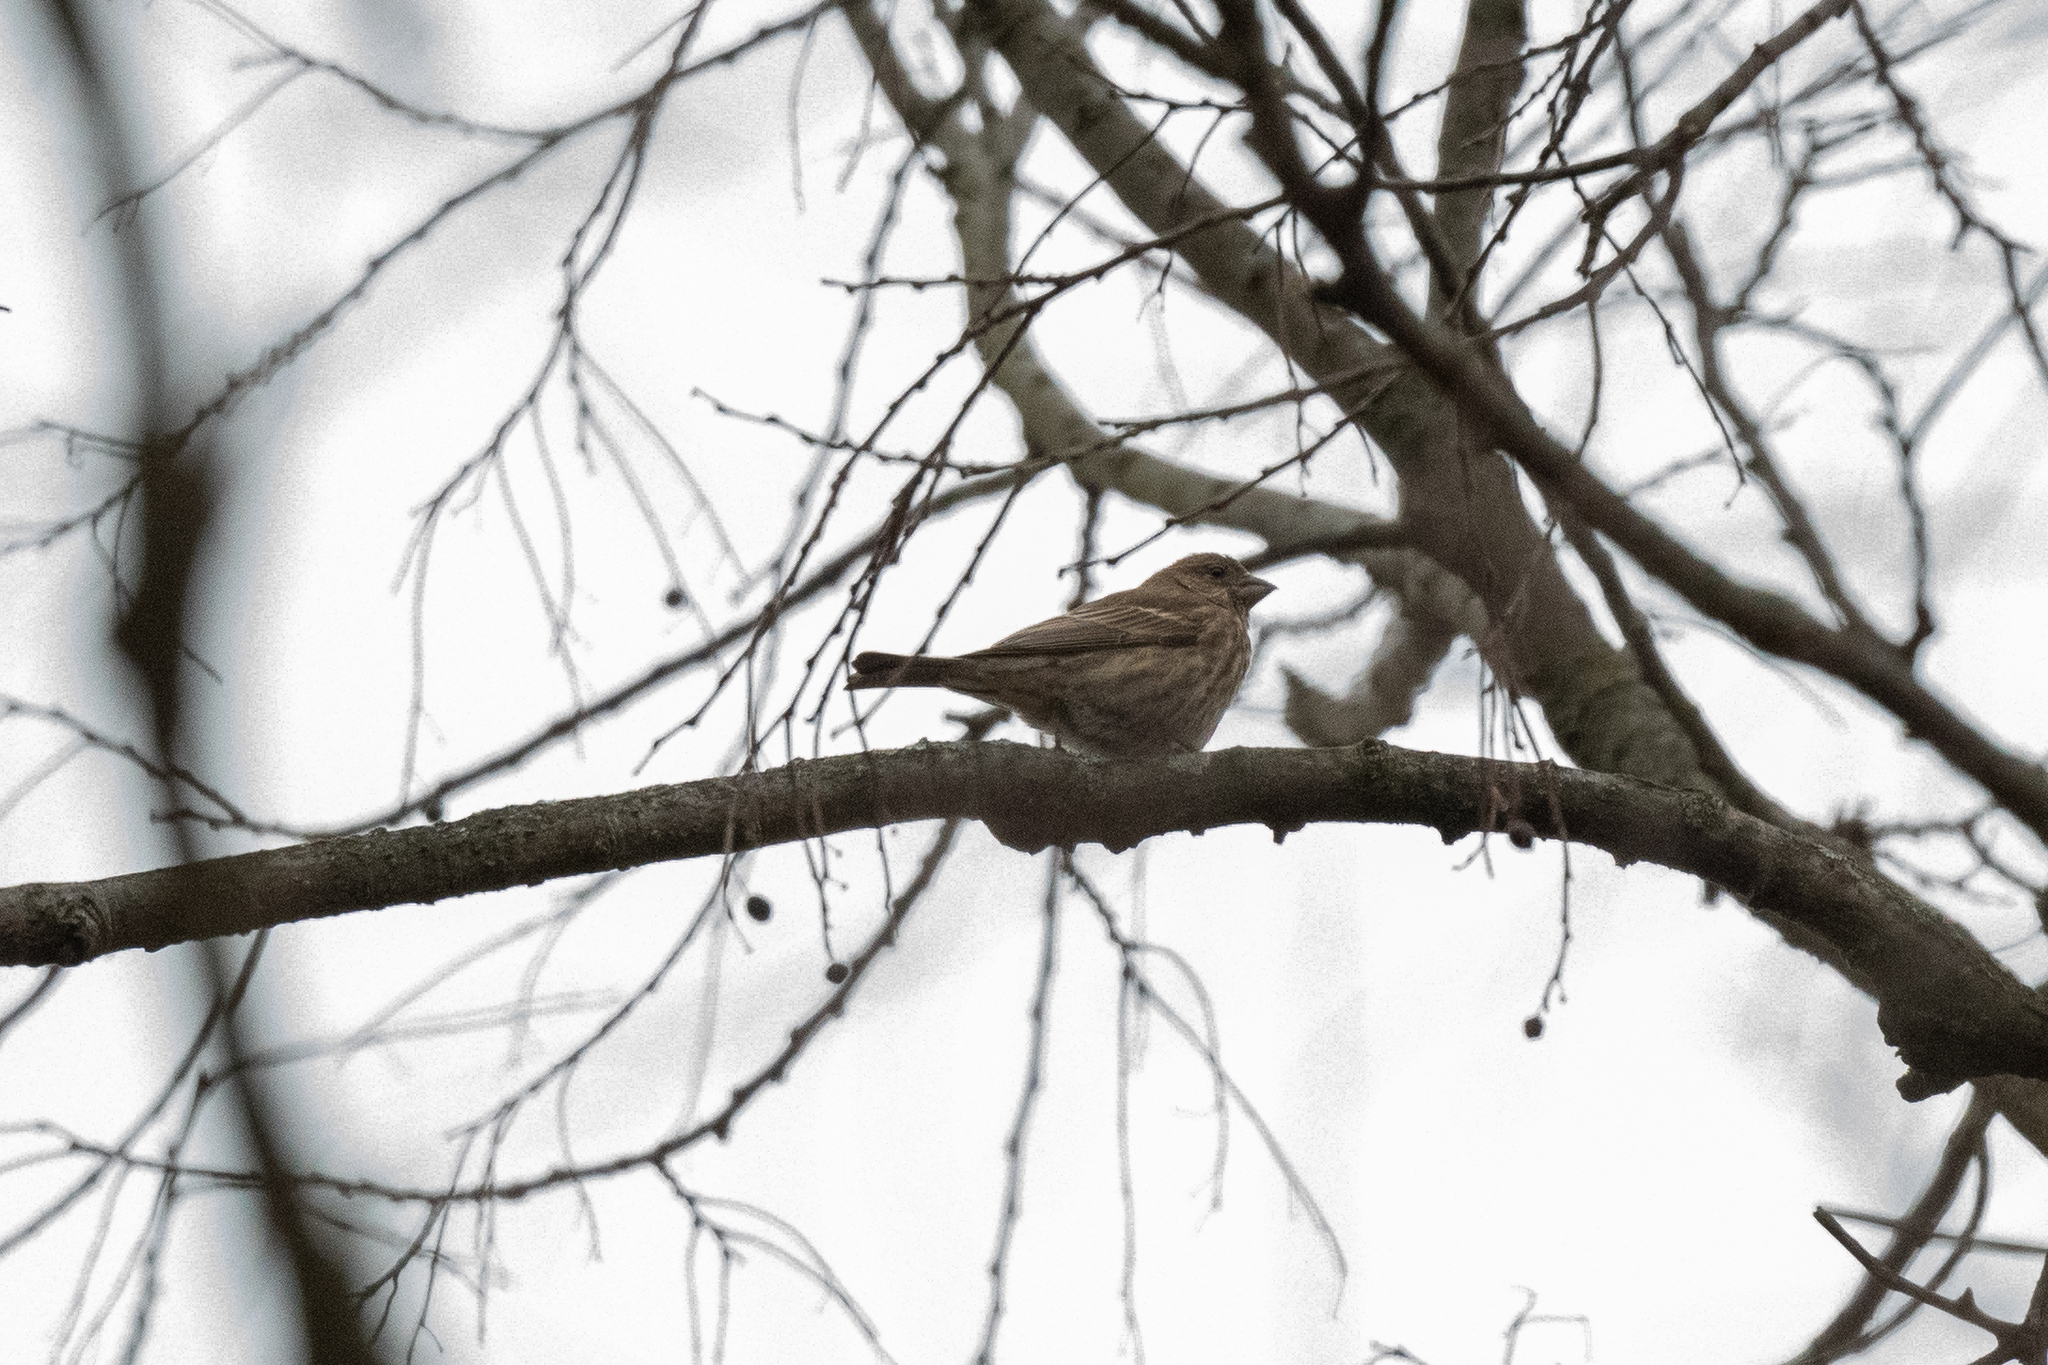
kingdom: Animalia
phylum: Chordata
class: Aves
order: Passeriformes
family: Fringillidae
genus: Haemorhous
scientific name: Haemorhous mexicanus
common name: House finch
